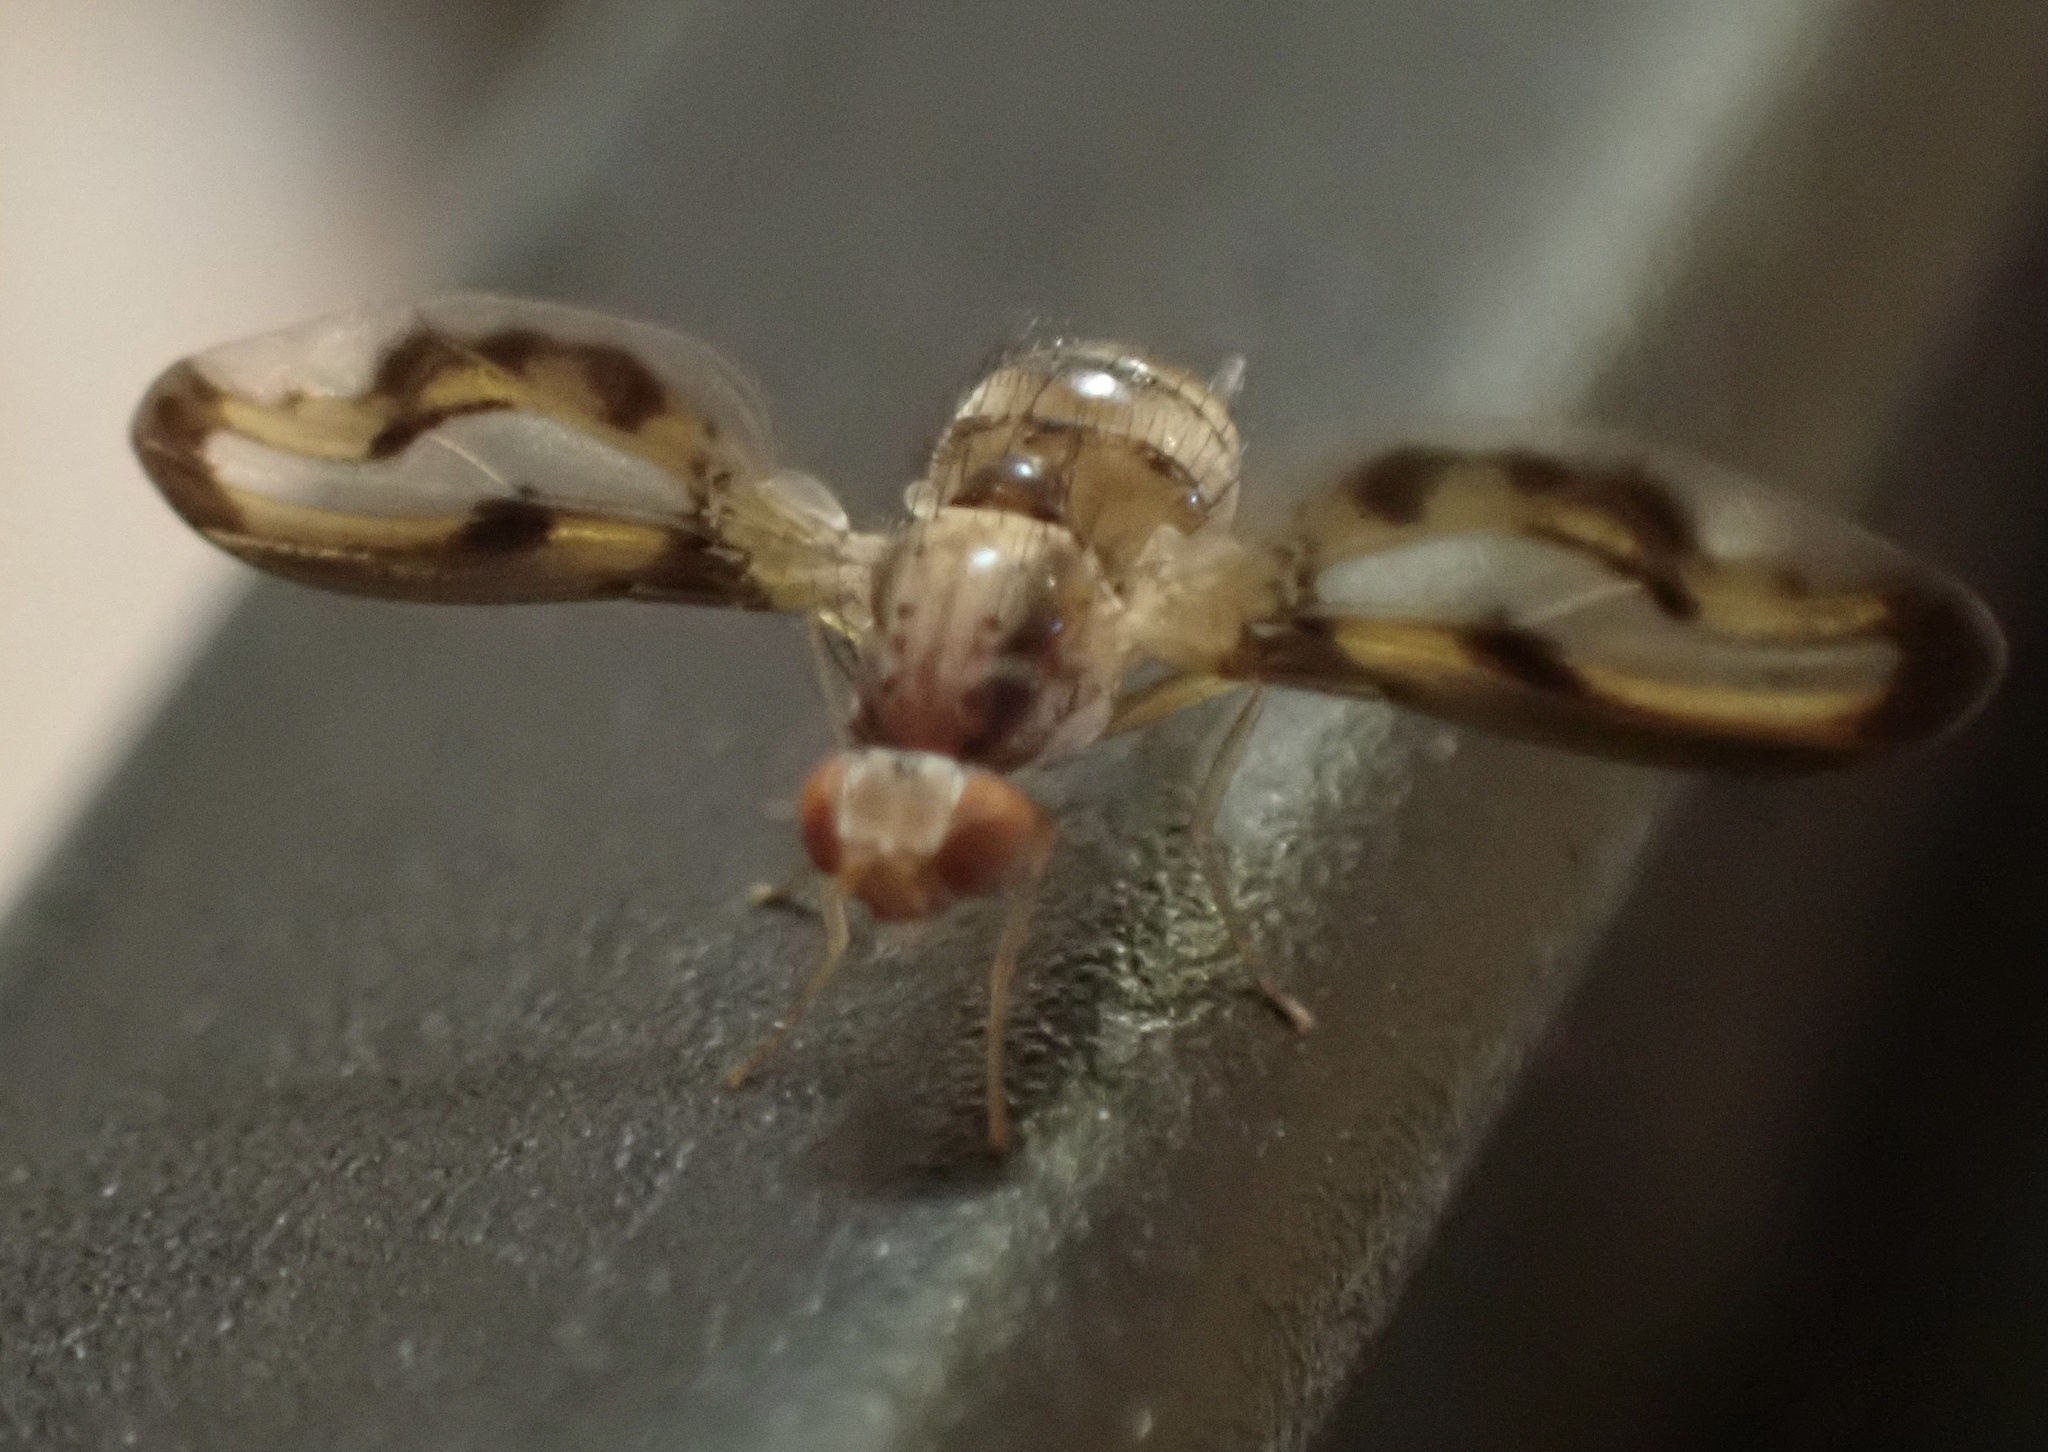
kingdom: Animalia
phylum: Arthropoda
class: Insecta
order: Diptera
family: Pallopteridae
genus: Toxonevra
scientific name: Toxonevra muliebris
